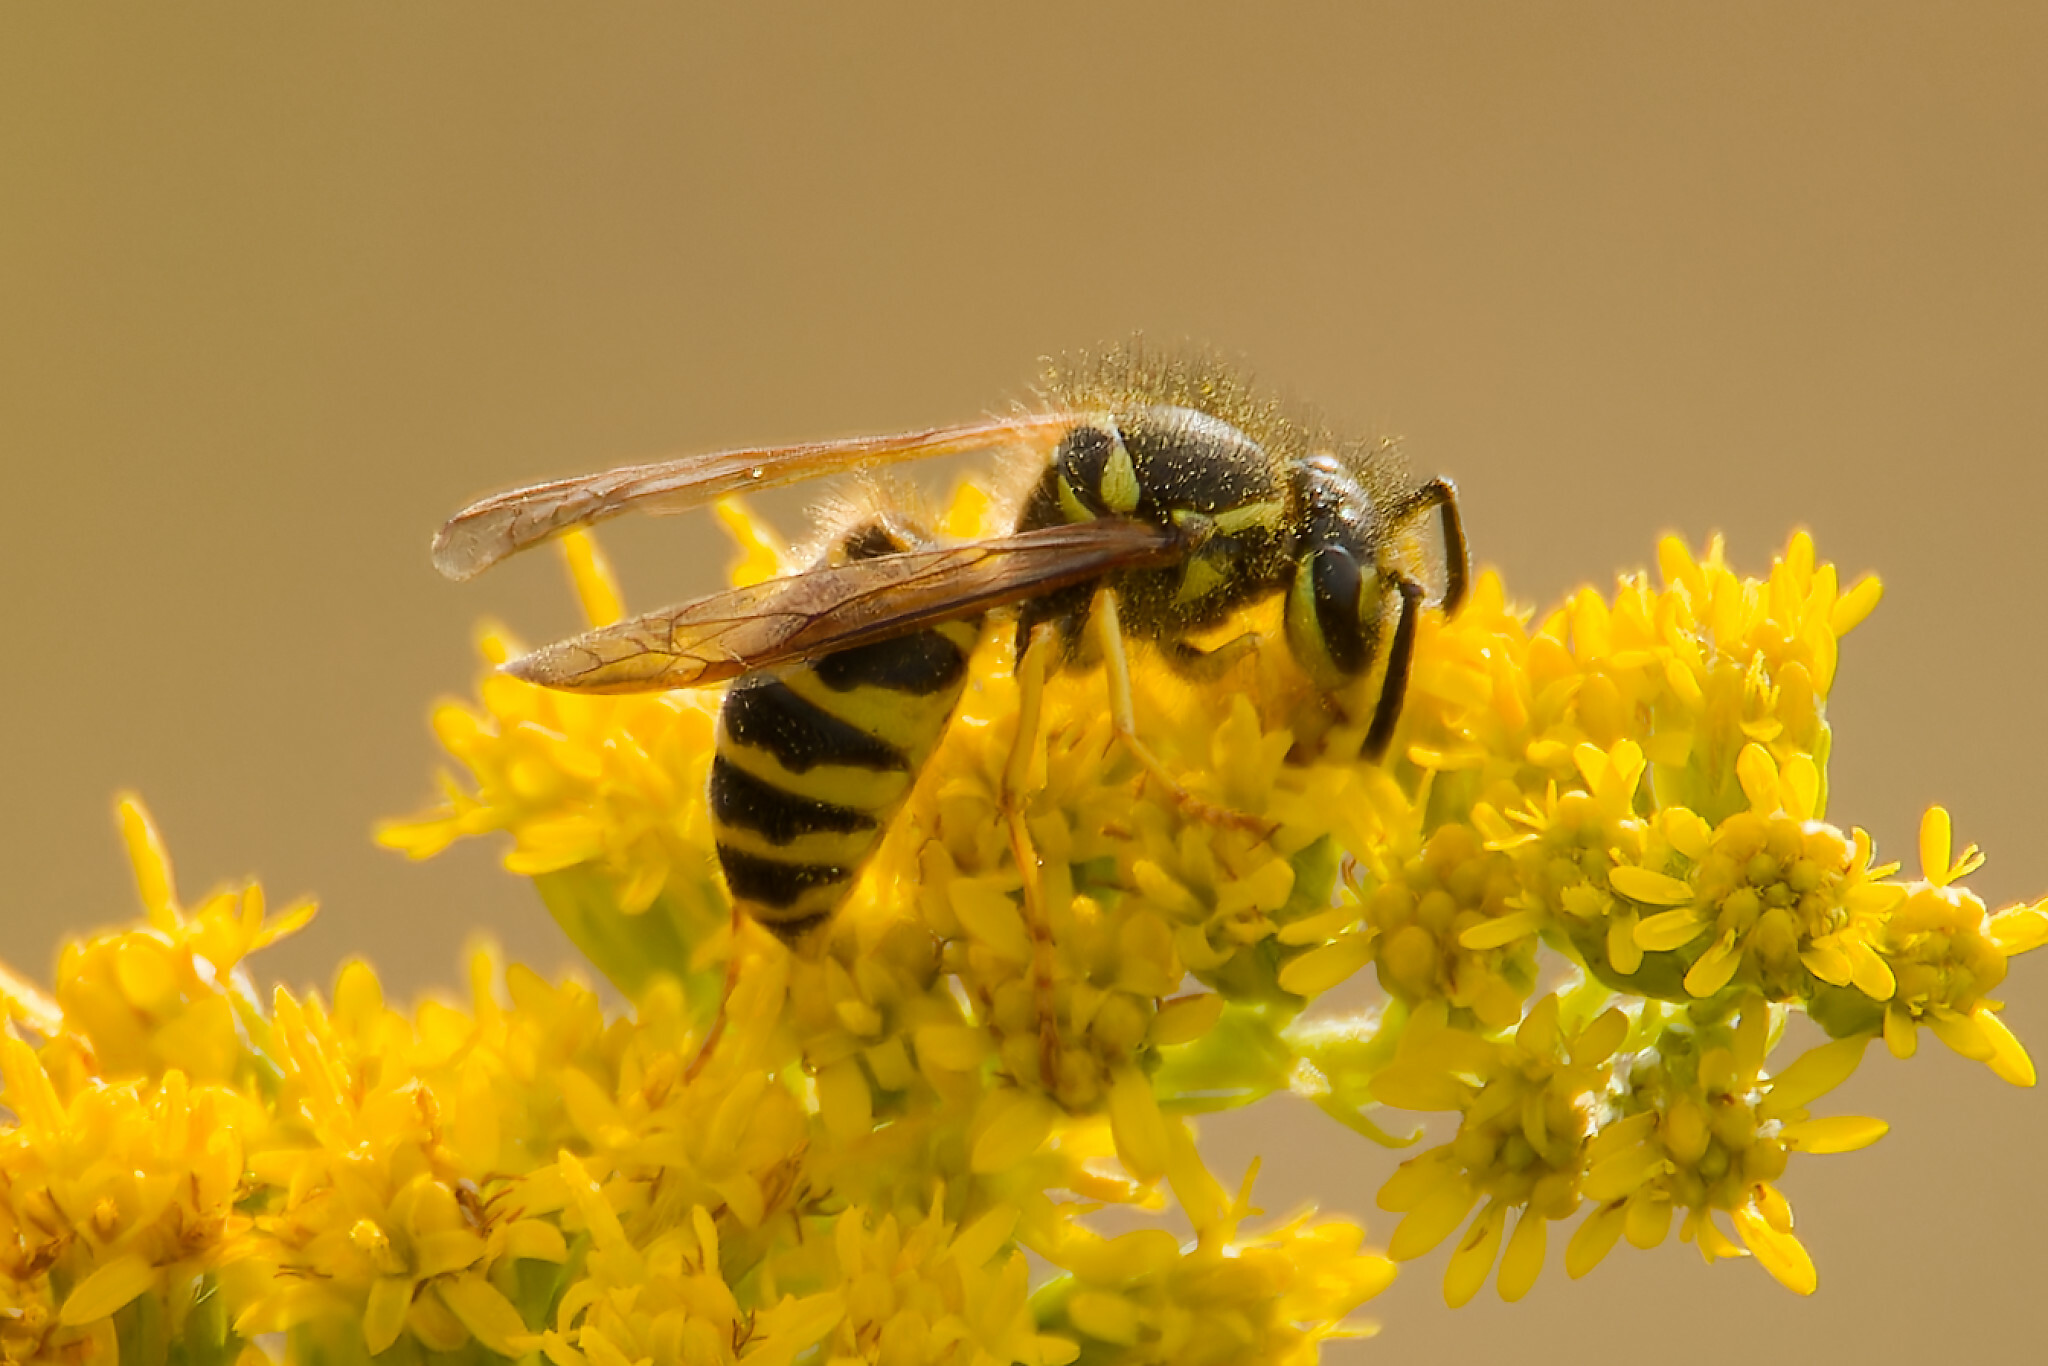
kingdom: Animalia
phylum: Arthropoda
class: Insecta
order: Hymenoptera
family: Vespidae
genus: Vespula
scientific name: Vespula maculifrons
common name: Eastern yellowjacket
